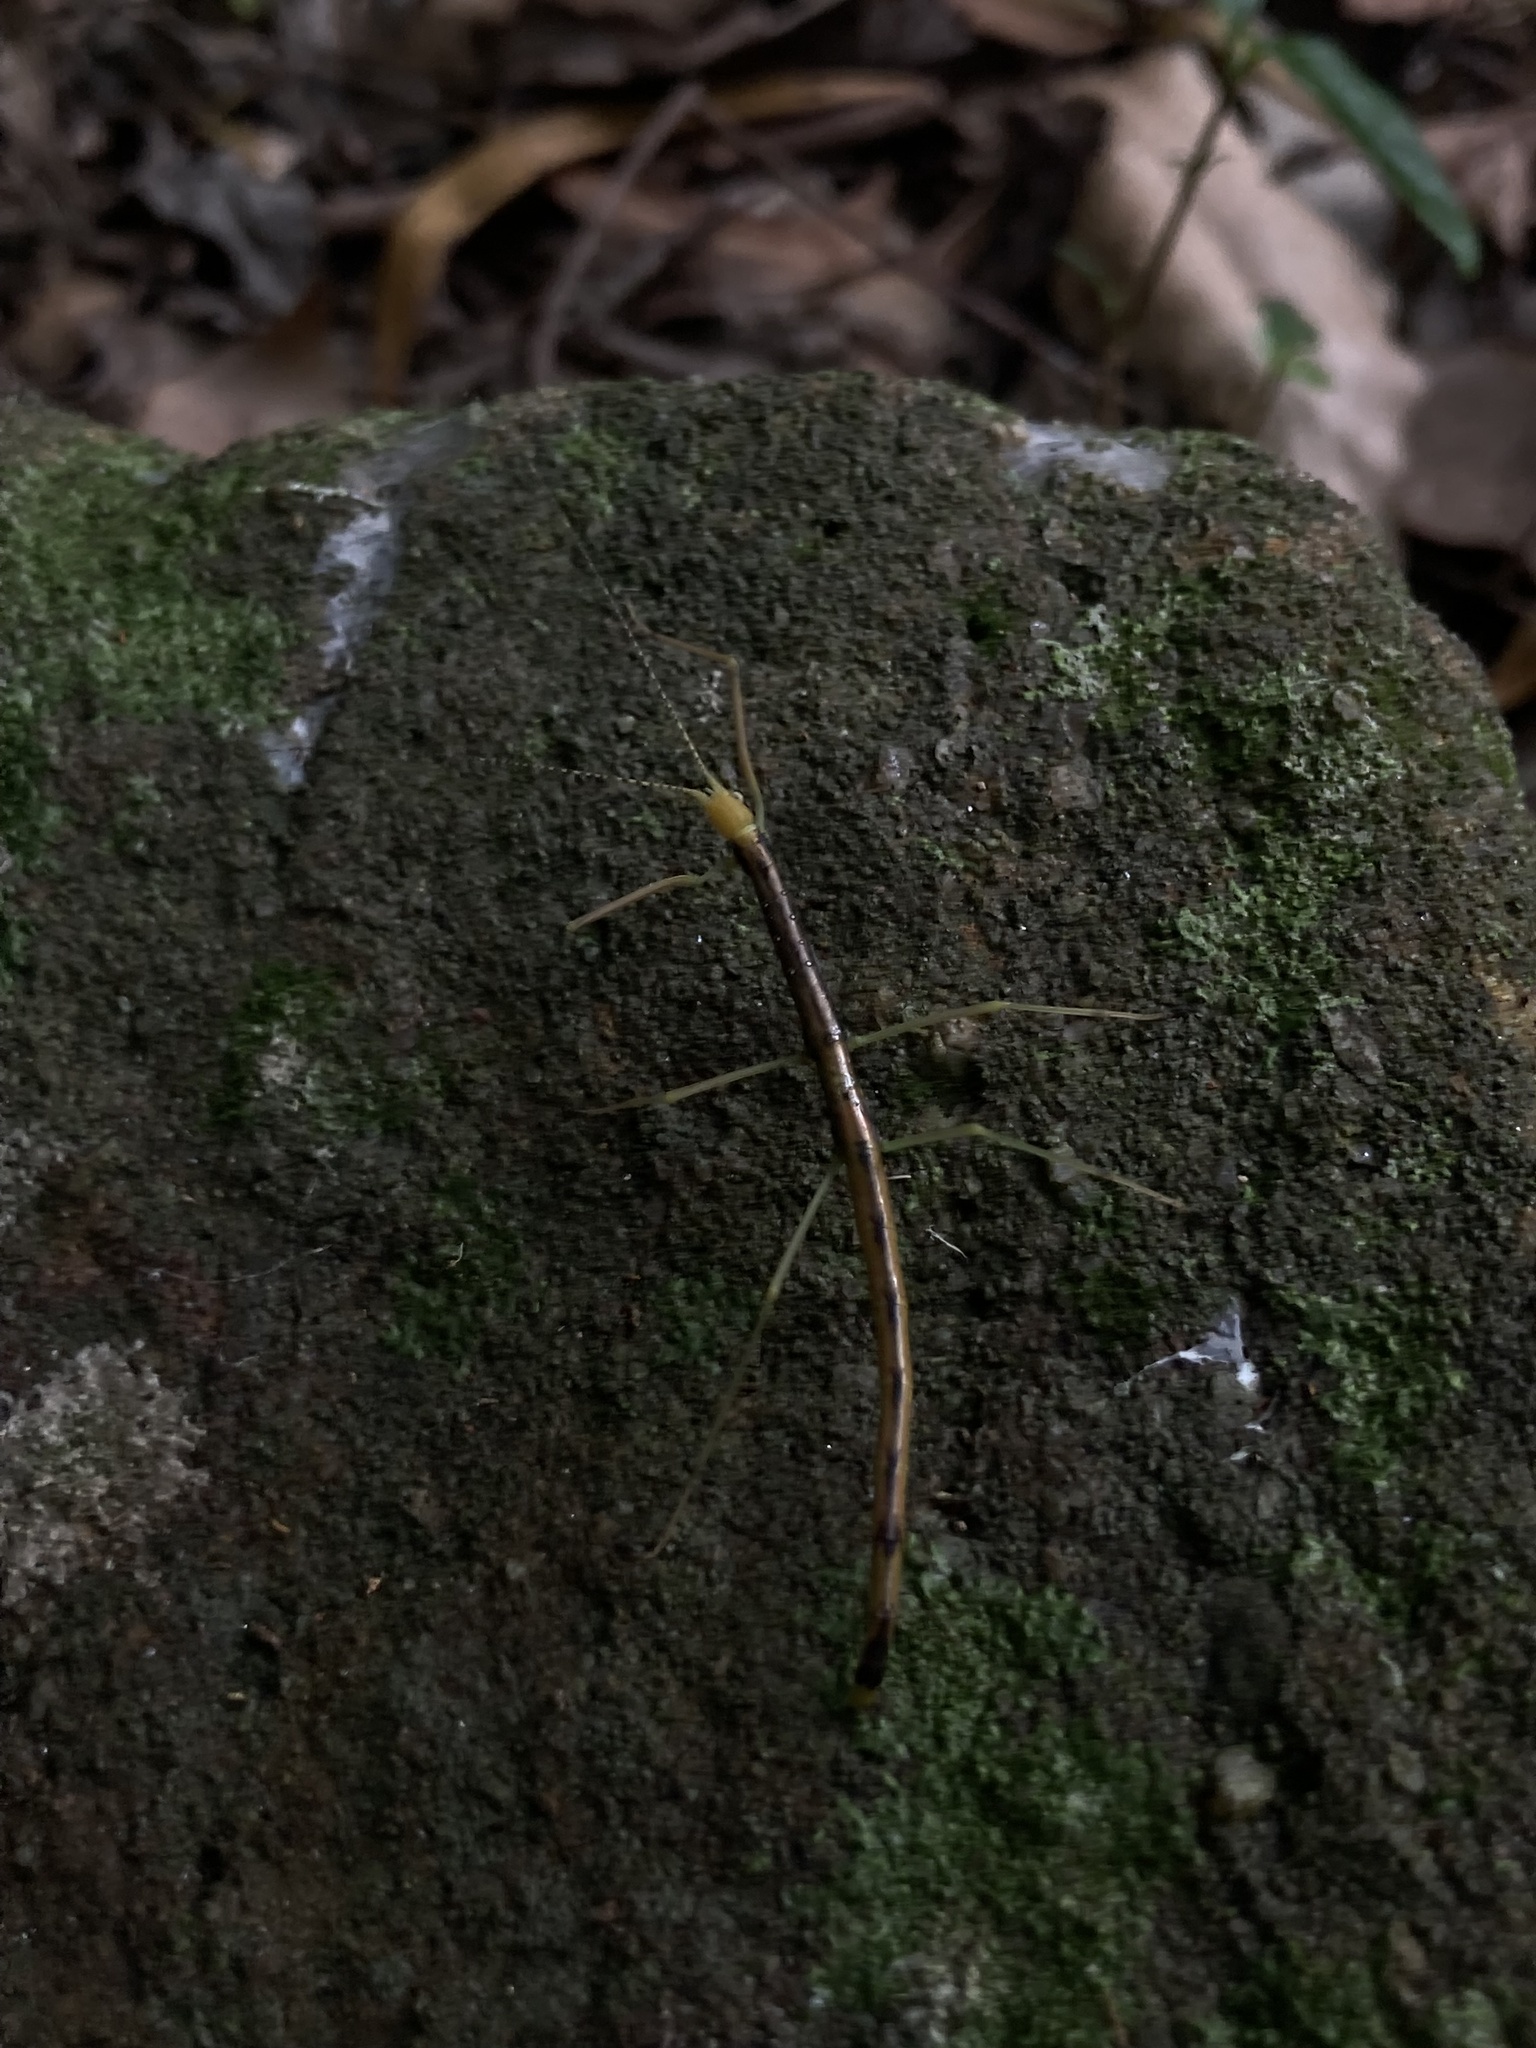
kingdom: Animalia
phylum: Arthropoda
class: Insecta
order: Phasmida
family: Lonchodidae
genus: Candovia
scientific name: Candovia strumosa
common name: Richmond river stick-insect
